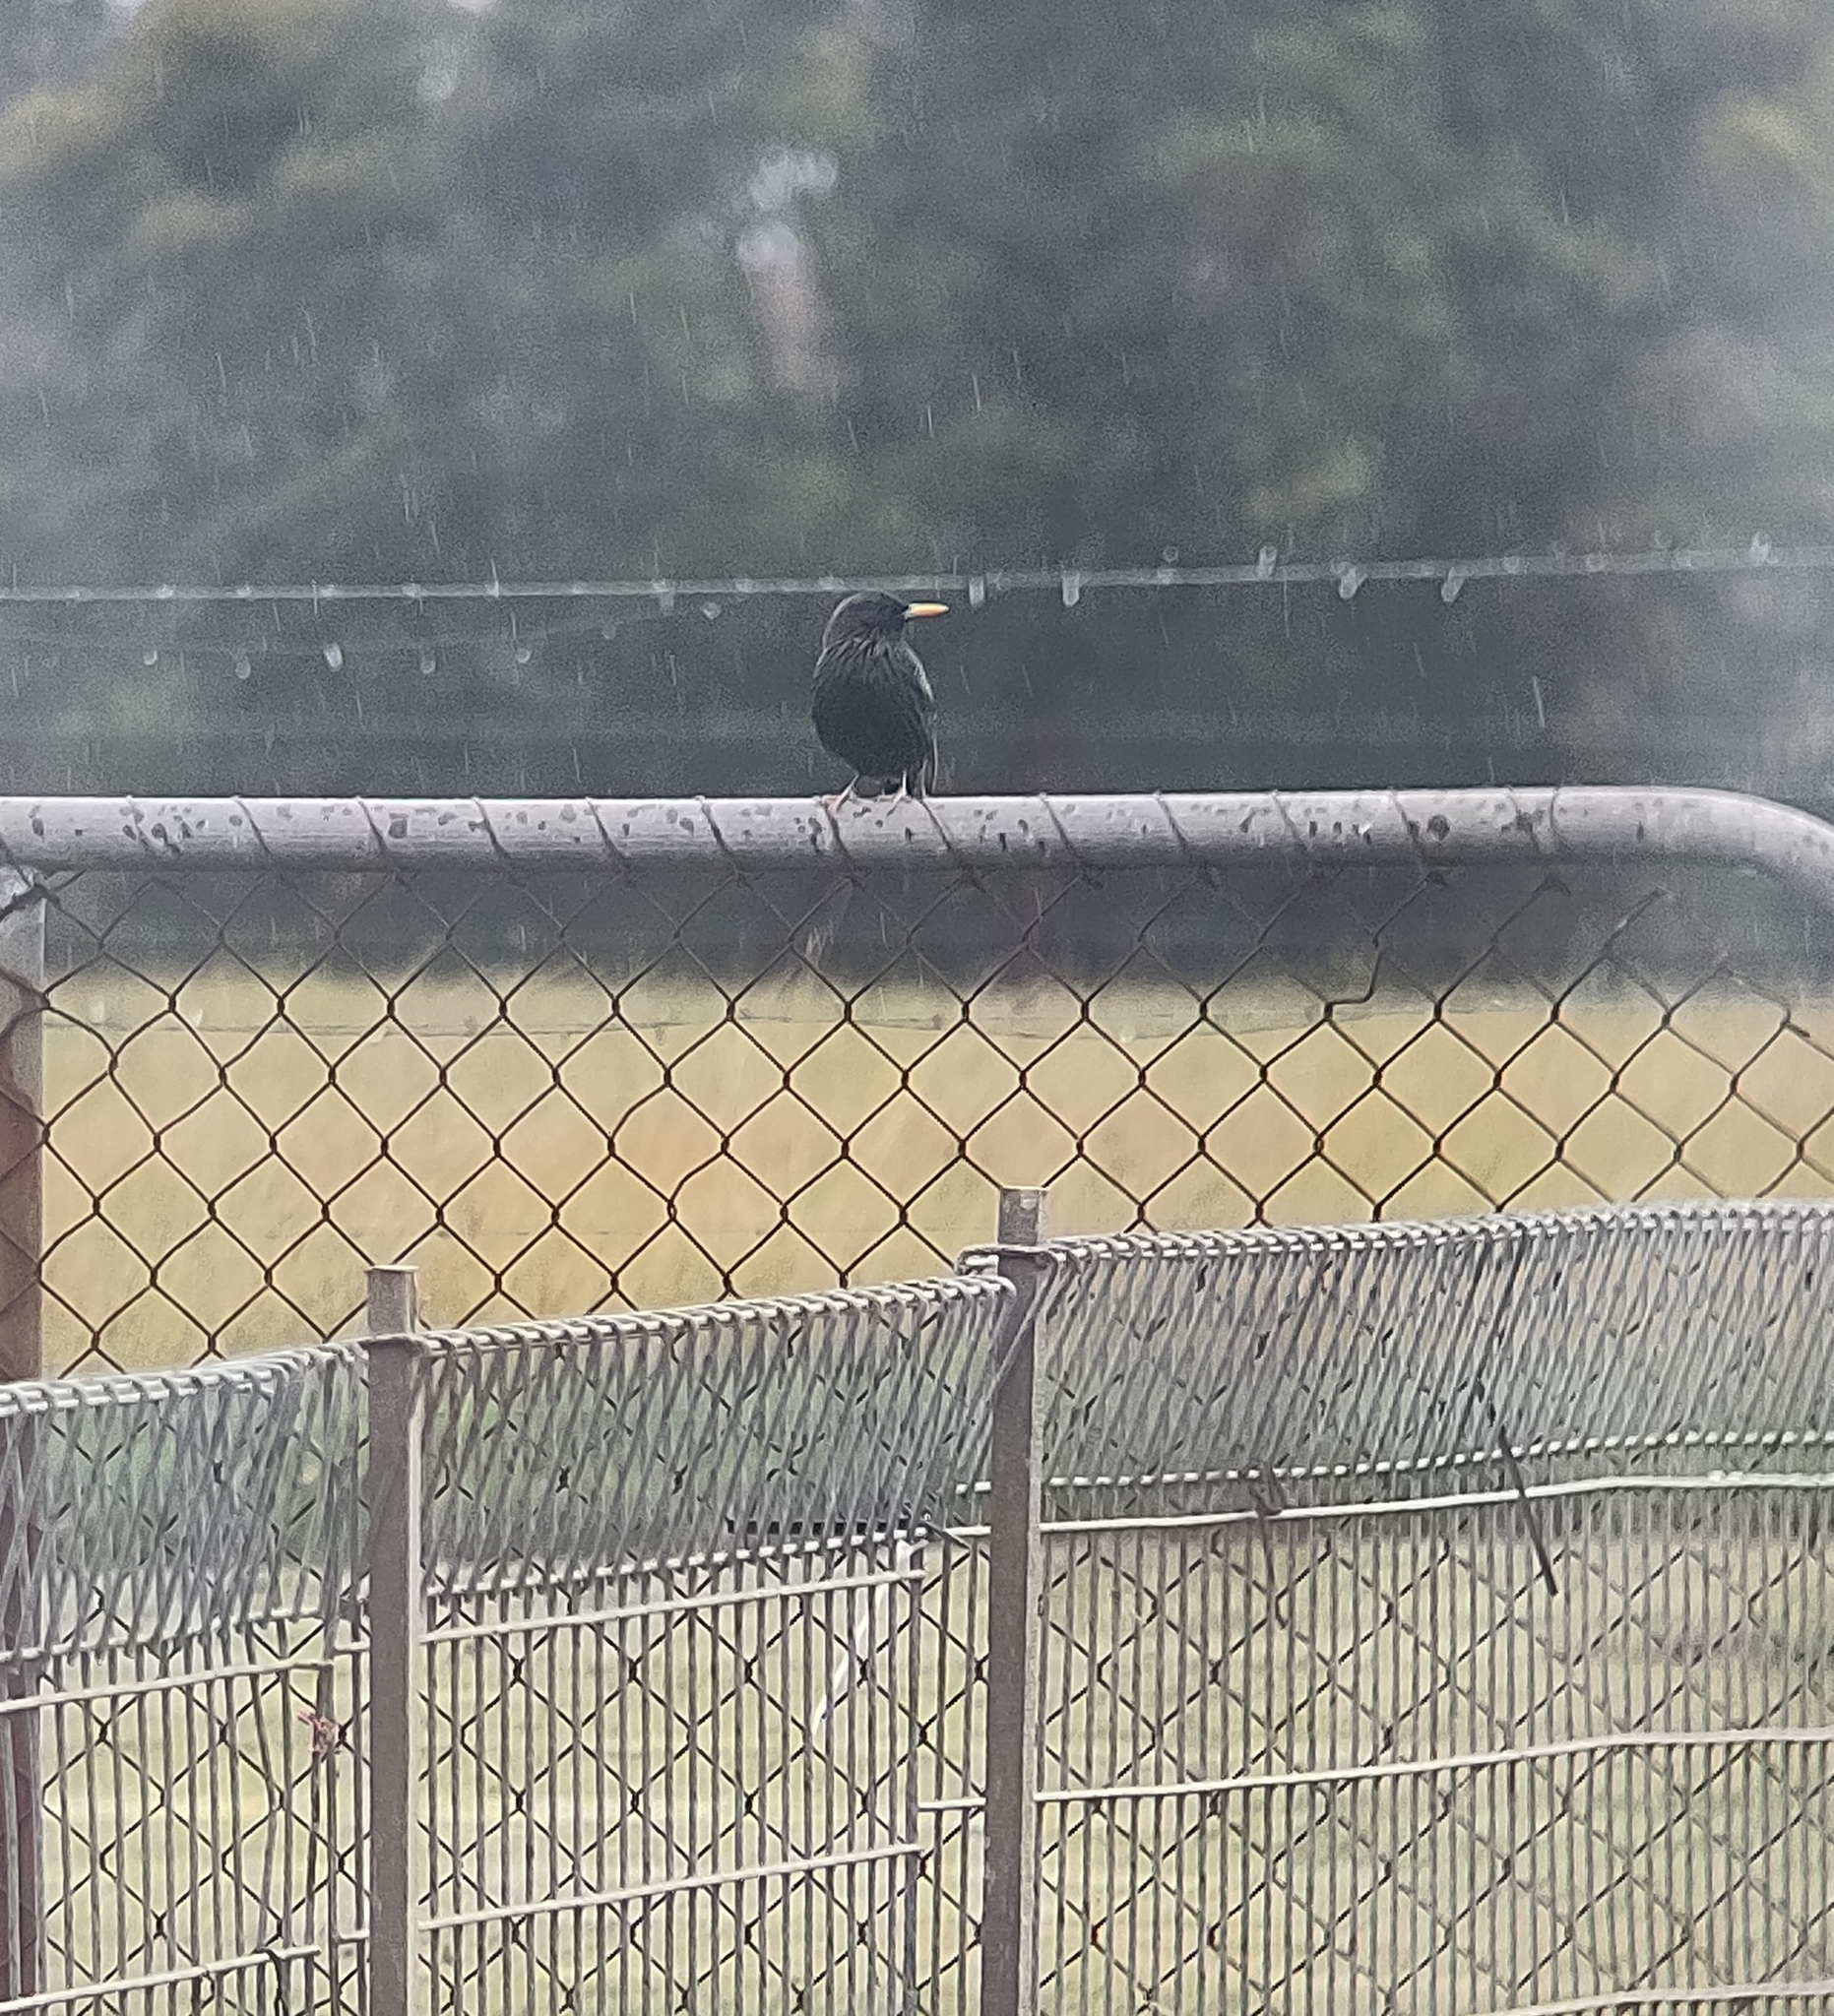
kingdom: Animalia
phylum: Chordata
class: Aves
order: Passeriformes
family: Sturnidae
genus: Sturnus
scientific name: Sturnus vulgaris
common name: Common starling
